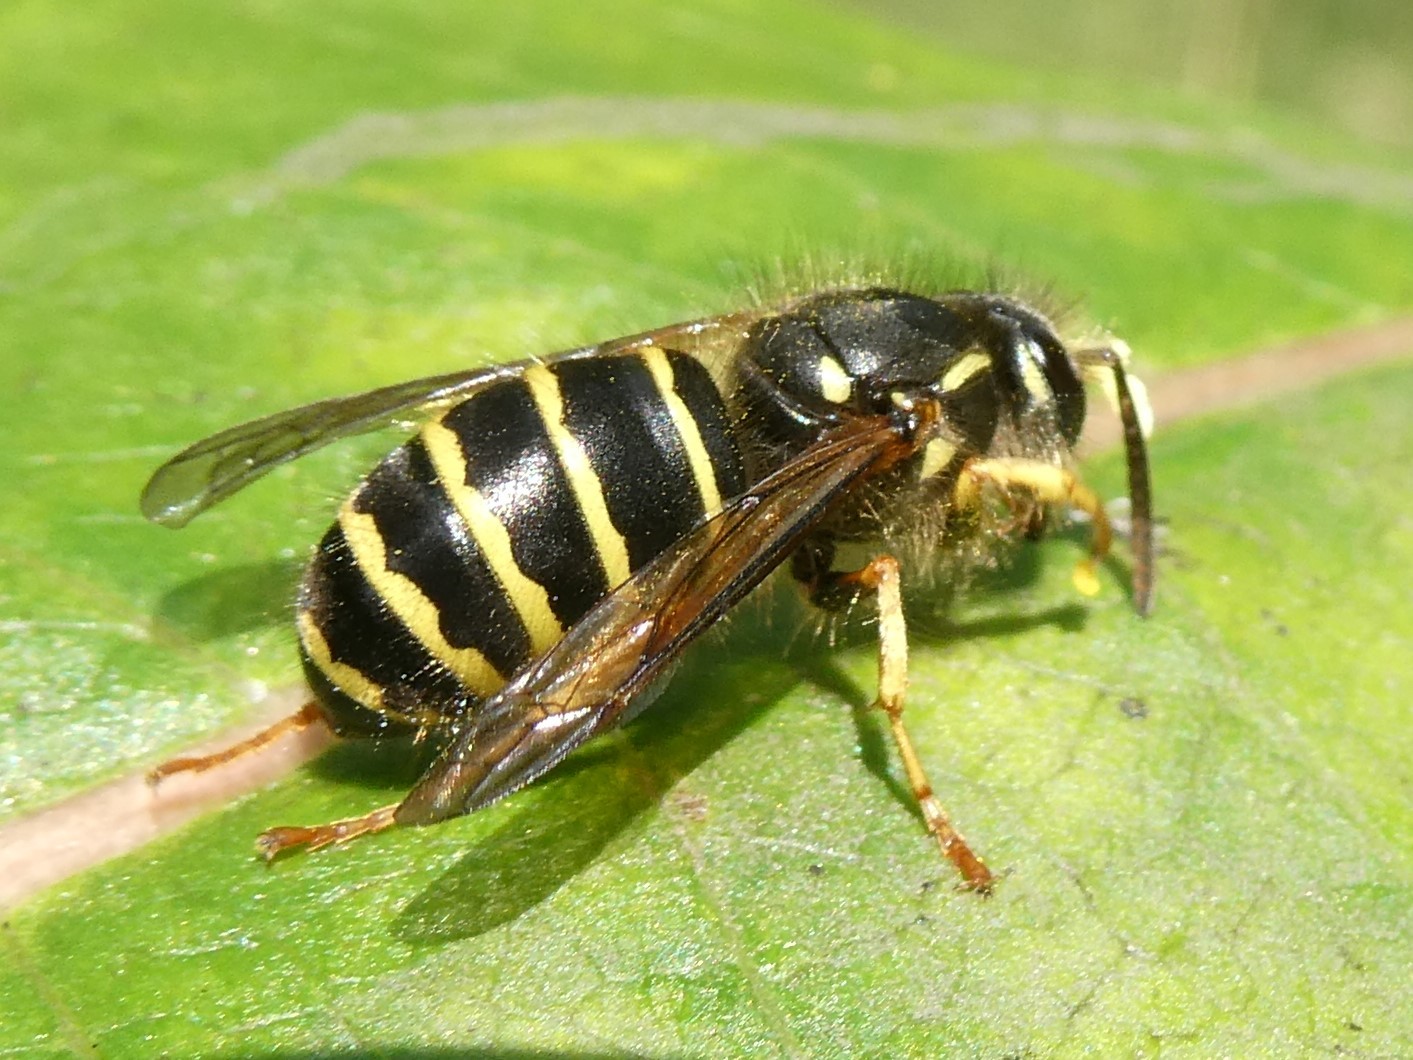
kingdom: Animalia
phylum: Arthropoda
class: Insecta
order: Hymenoptera
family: Vespidae
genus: Dolichovespula
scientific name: Dolichovespula norvegicoides
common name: Northern aerial yellowjacket
